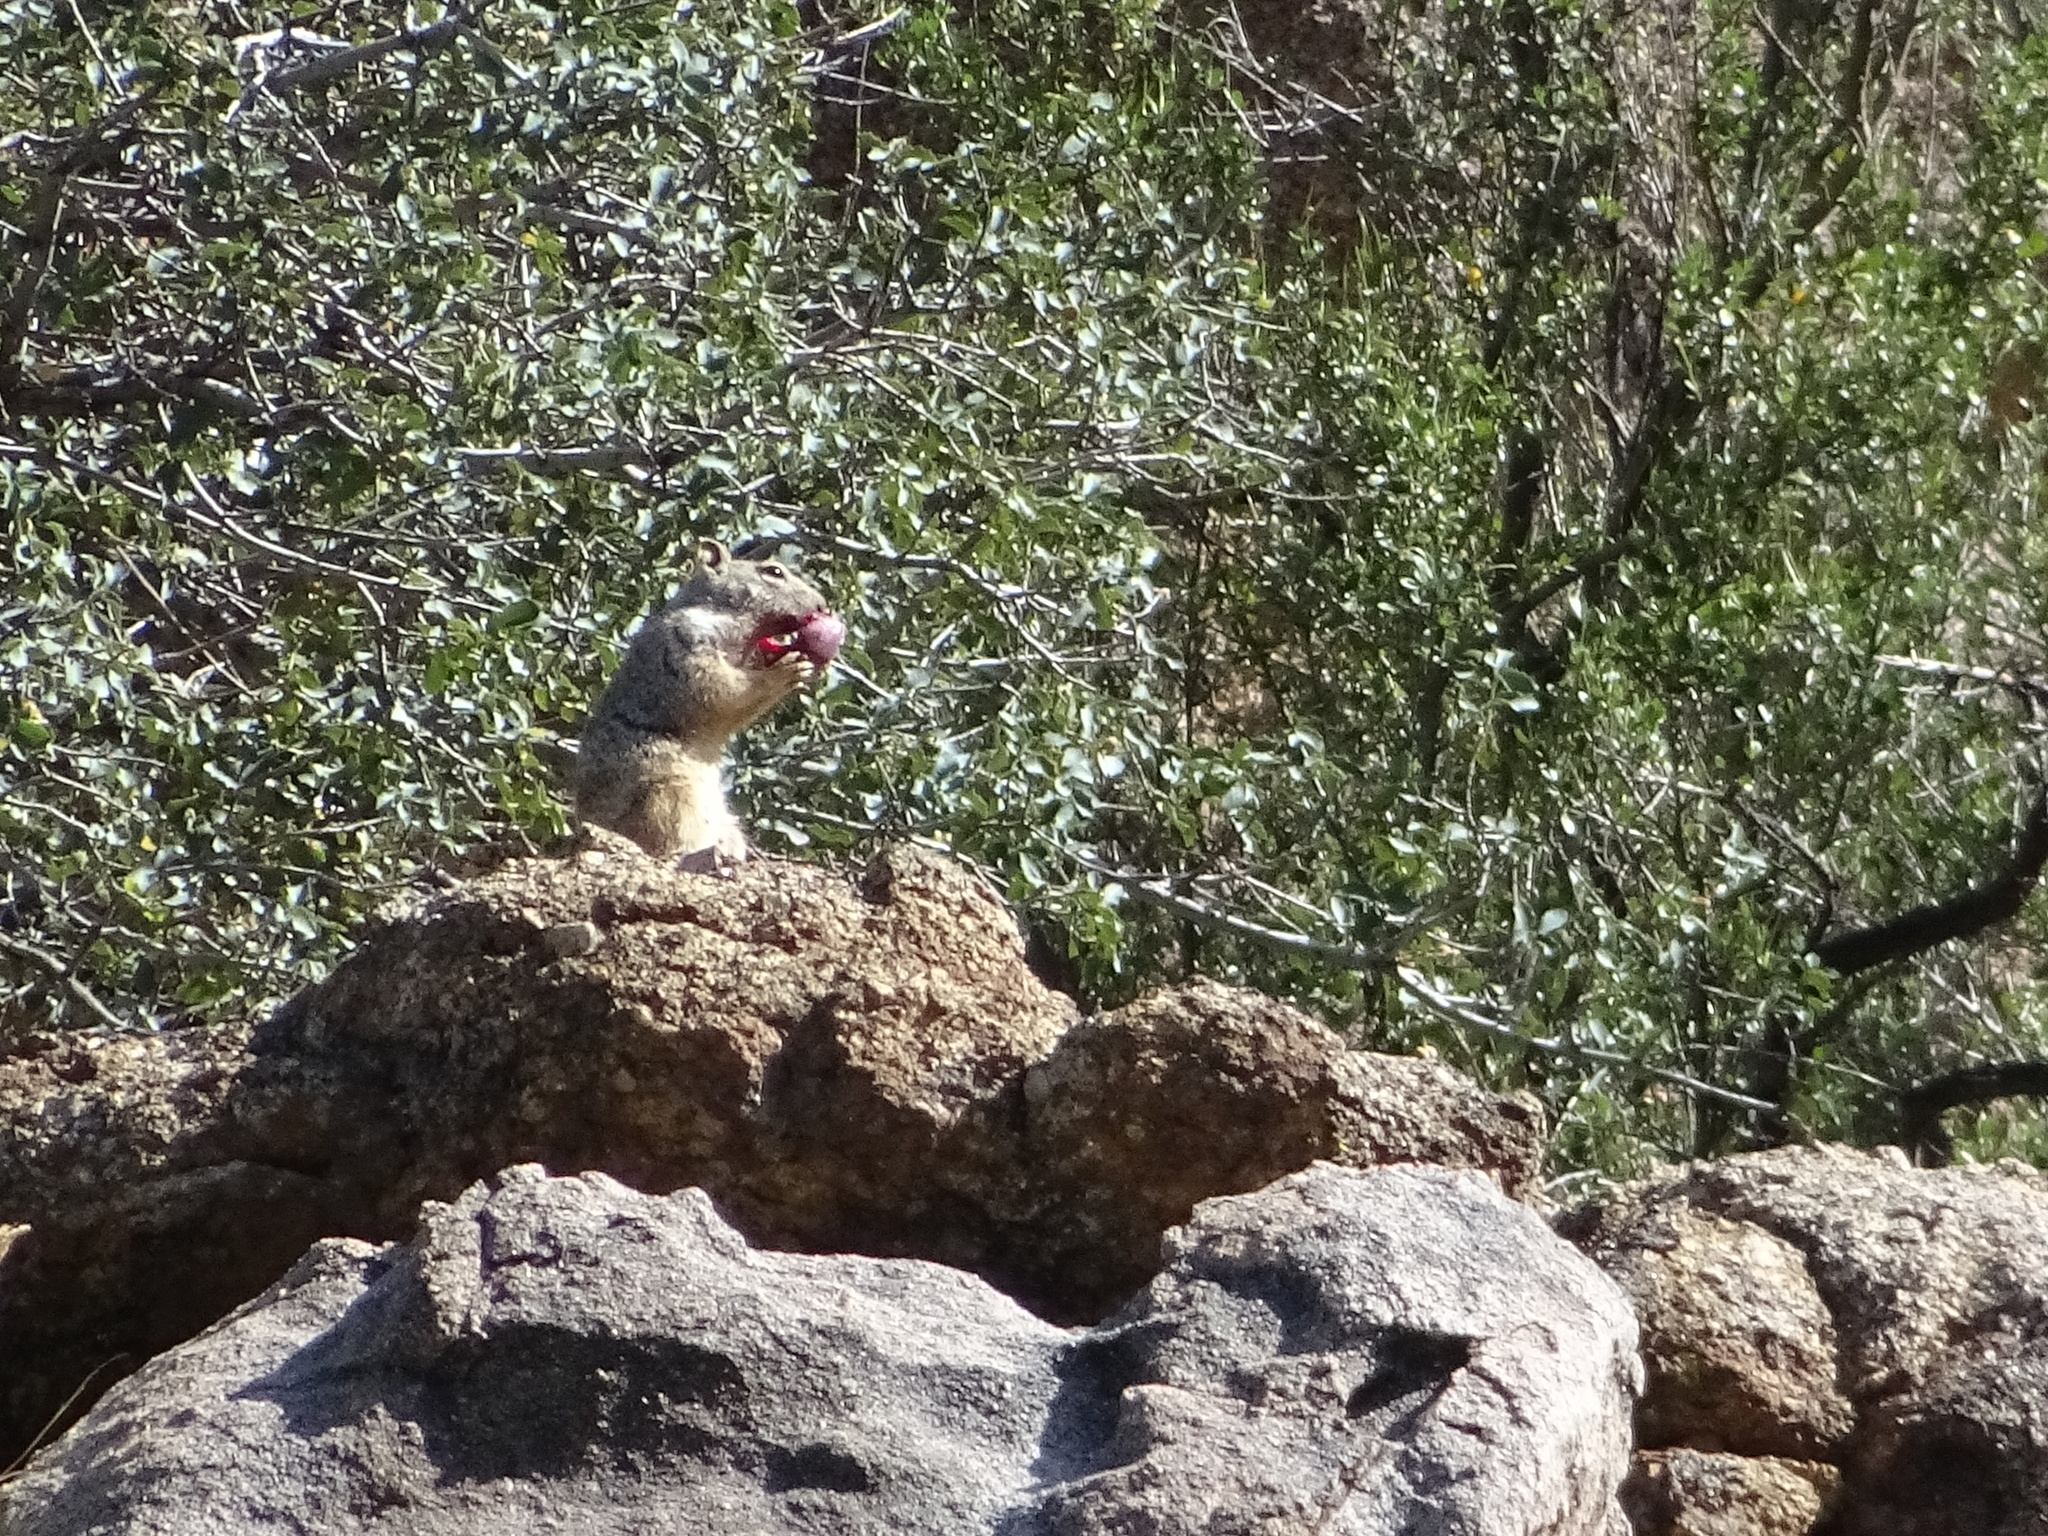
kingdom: Animalia
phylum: Chordata
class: Mammalia
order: Rodentia
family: Sciuridae
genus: Otospermophilus
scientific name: Otospermophilus variegatus
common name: Rock squirrel
